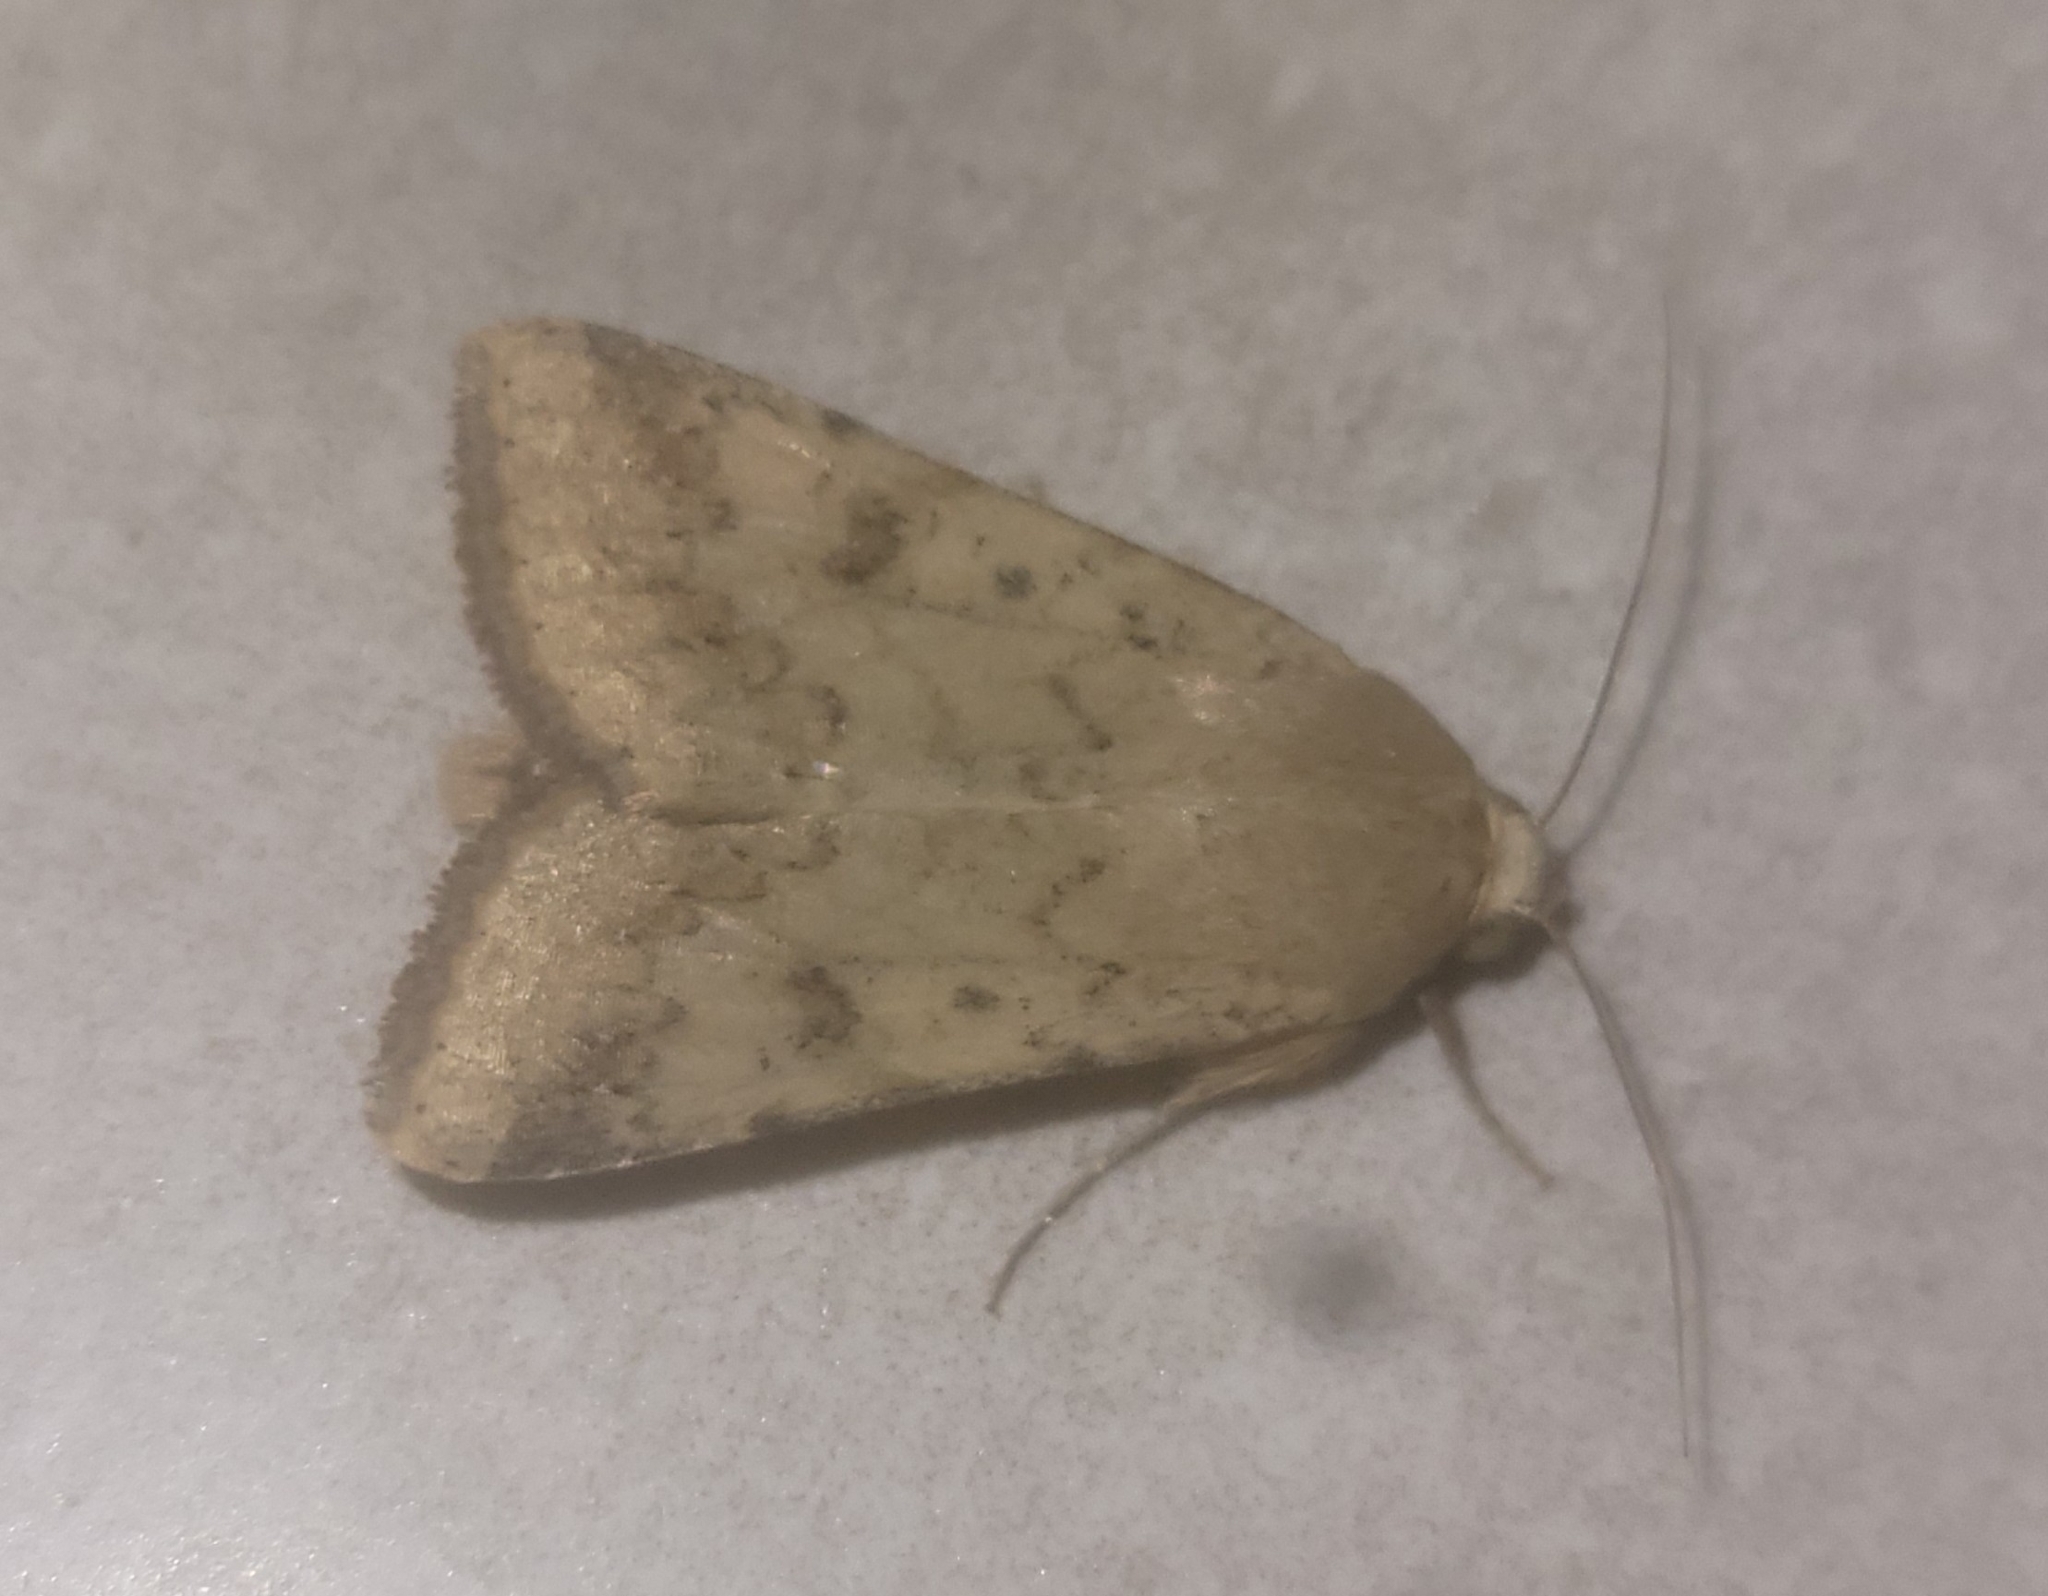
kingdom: Animalia
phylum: Arthropoda
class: Insecta
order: Lepidoptera
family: Noctuidae
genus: Helicoverpa
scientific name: Helicoverpa armigera
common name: Cotton bollworm
